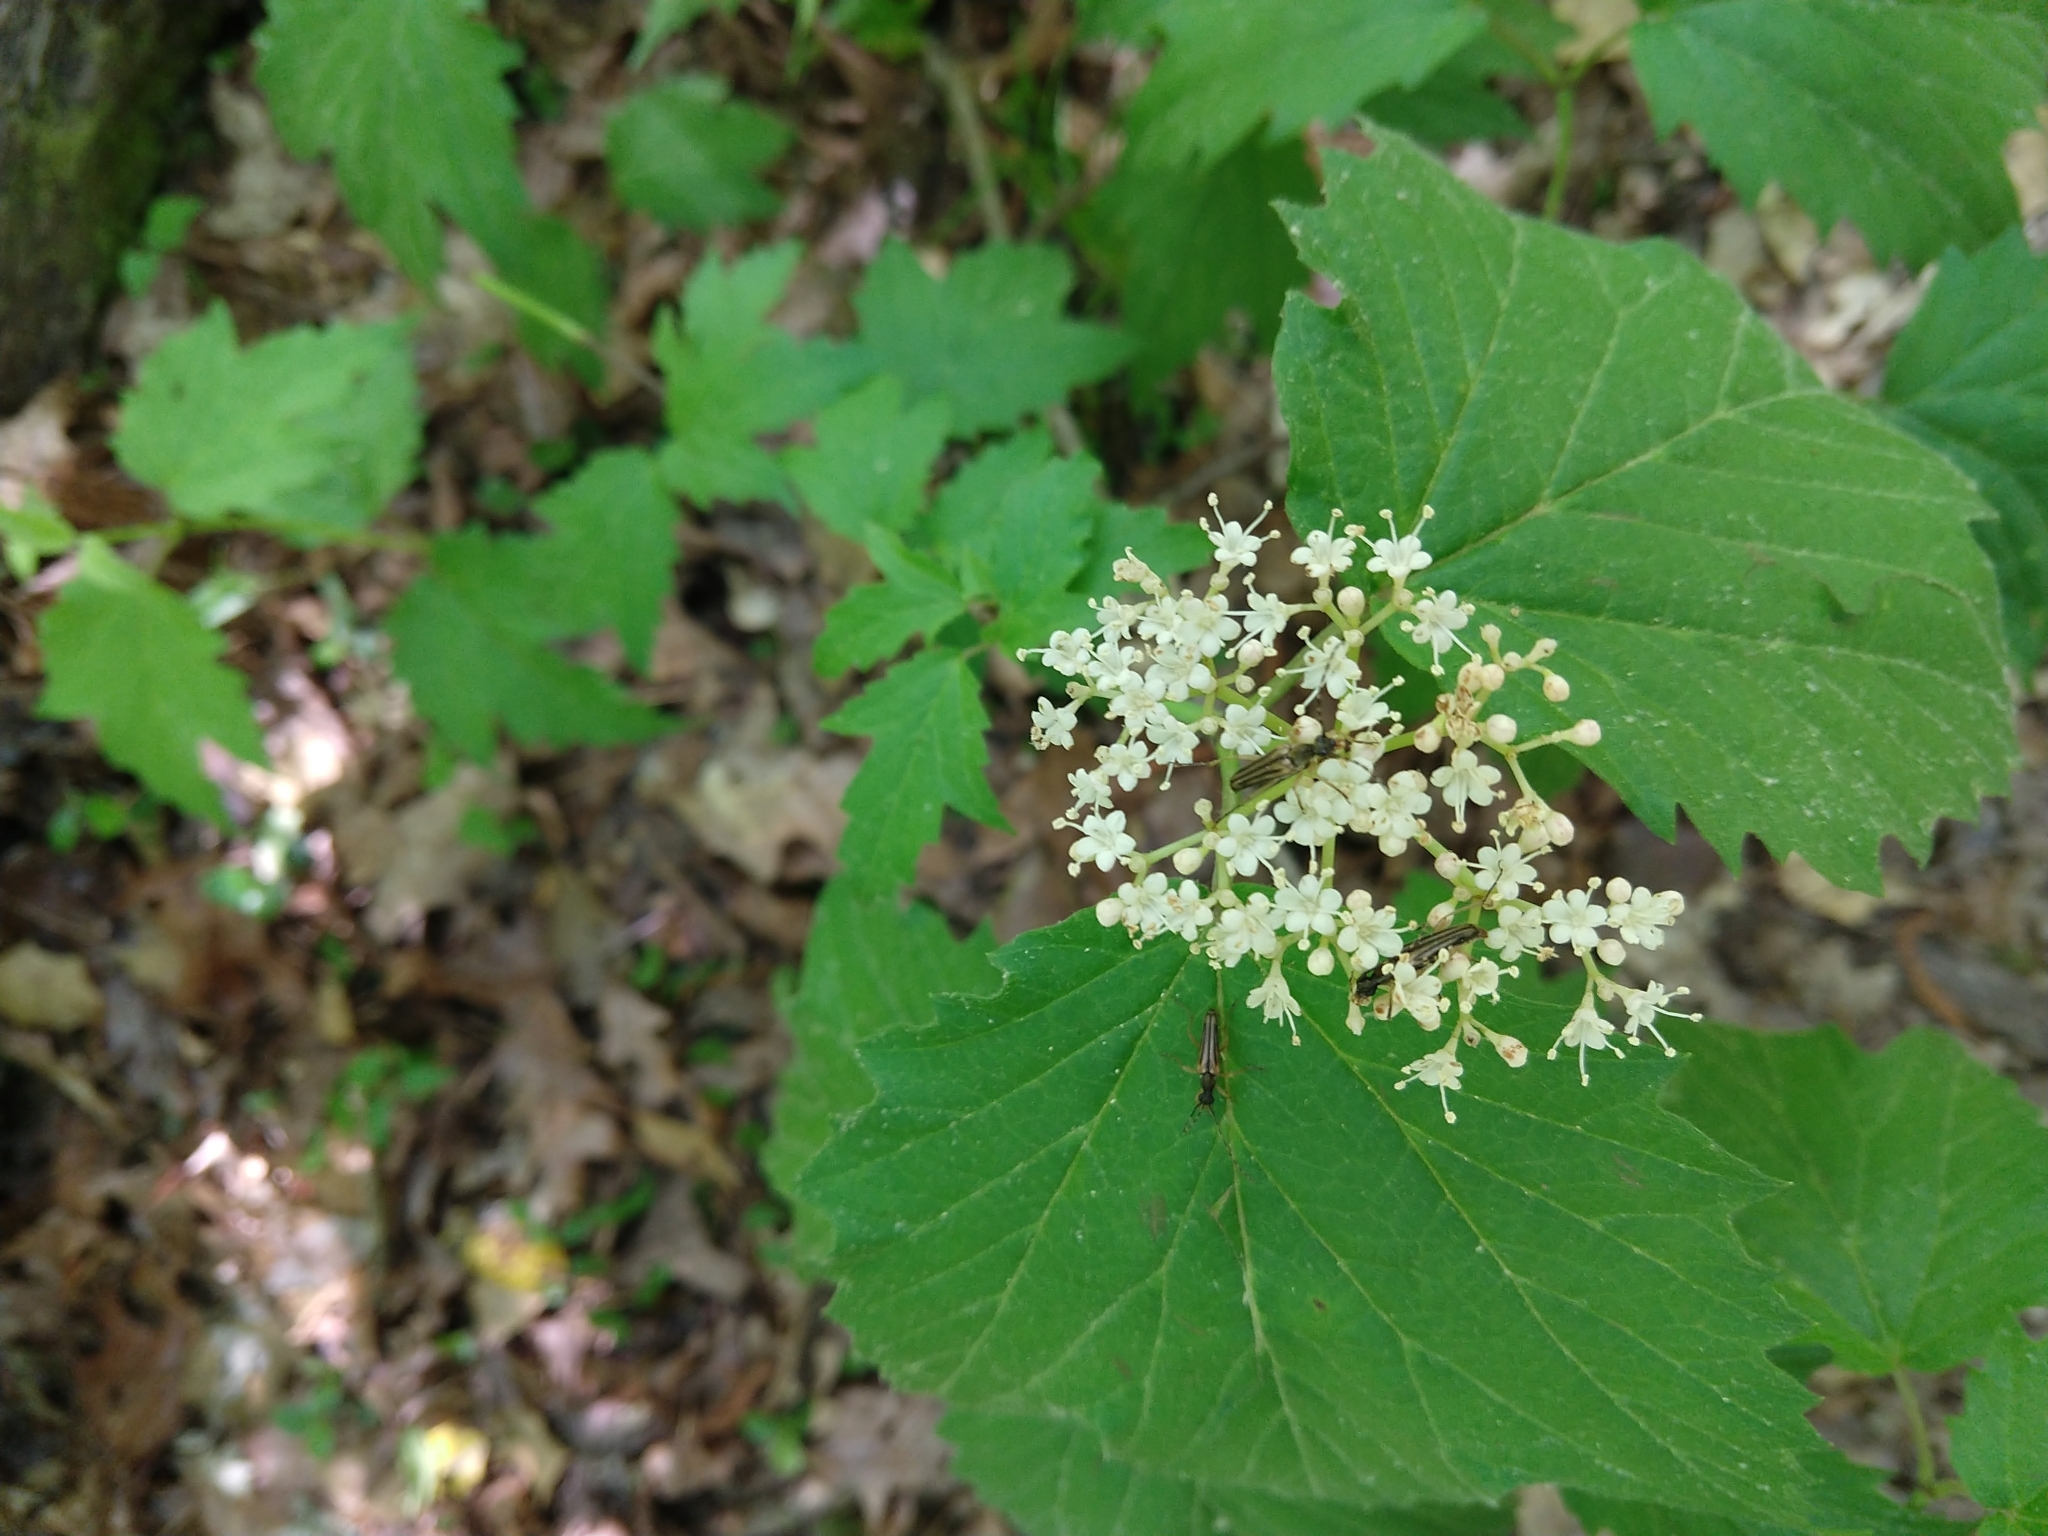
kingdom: Plantae
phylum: Tracheophyta
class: Magnoliopsida
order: Dipsacales
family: Viburnaceae
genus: Viburnum
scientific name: Viburnum acerifolium
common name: Dockmackie
